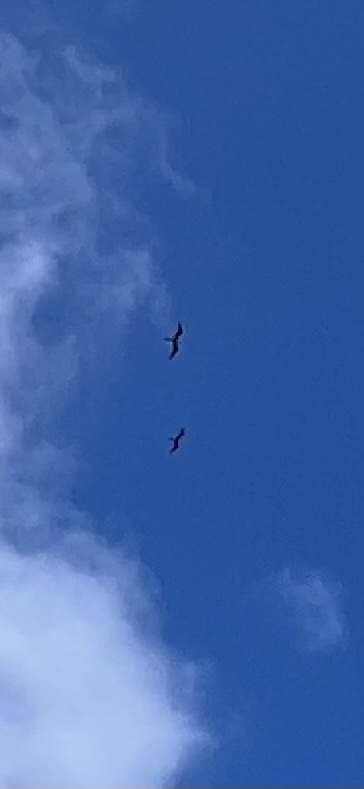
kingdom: Animalia
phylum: Chordata
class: Aves
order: Suliformes
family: Fregatidae
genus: Fregata
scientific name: Fregata magnificens
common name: Magnificent frigatebird
